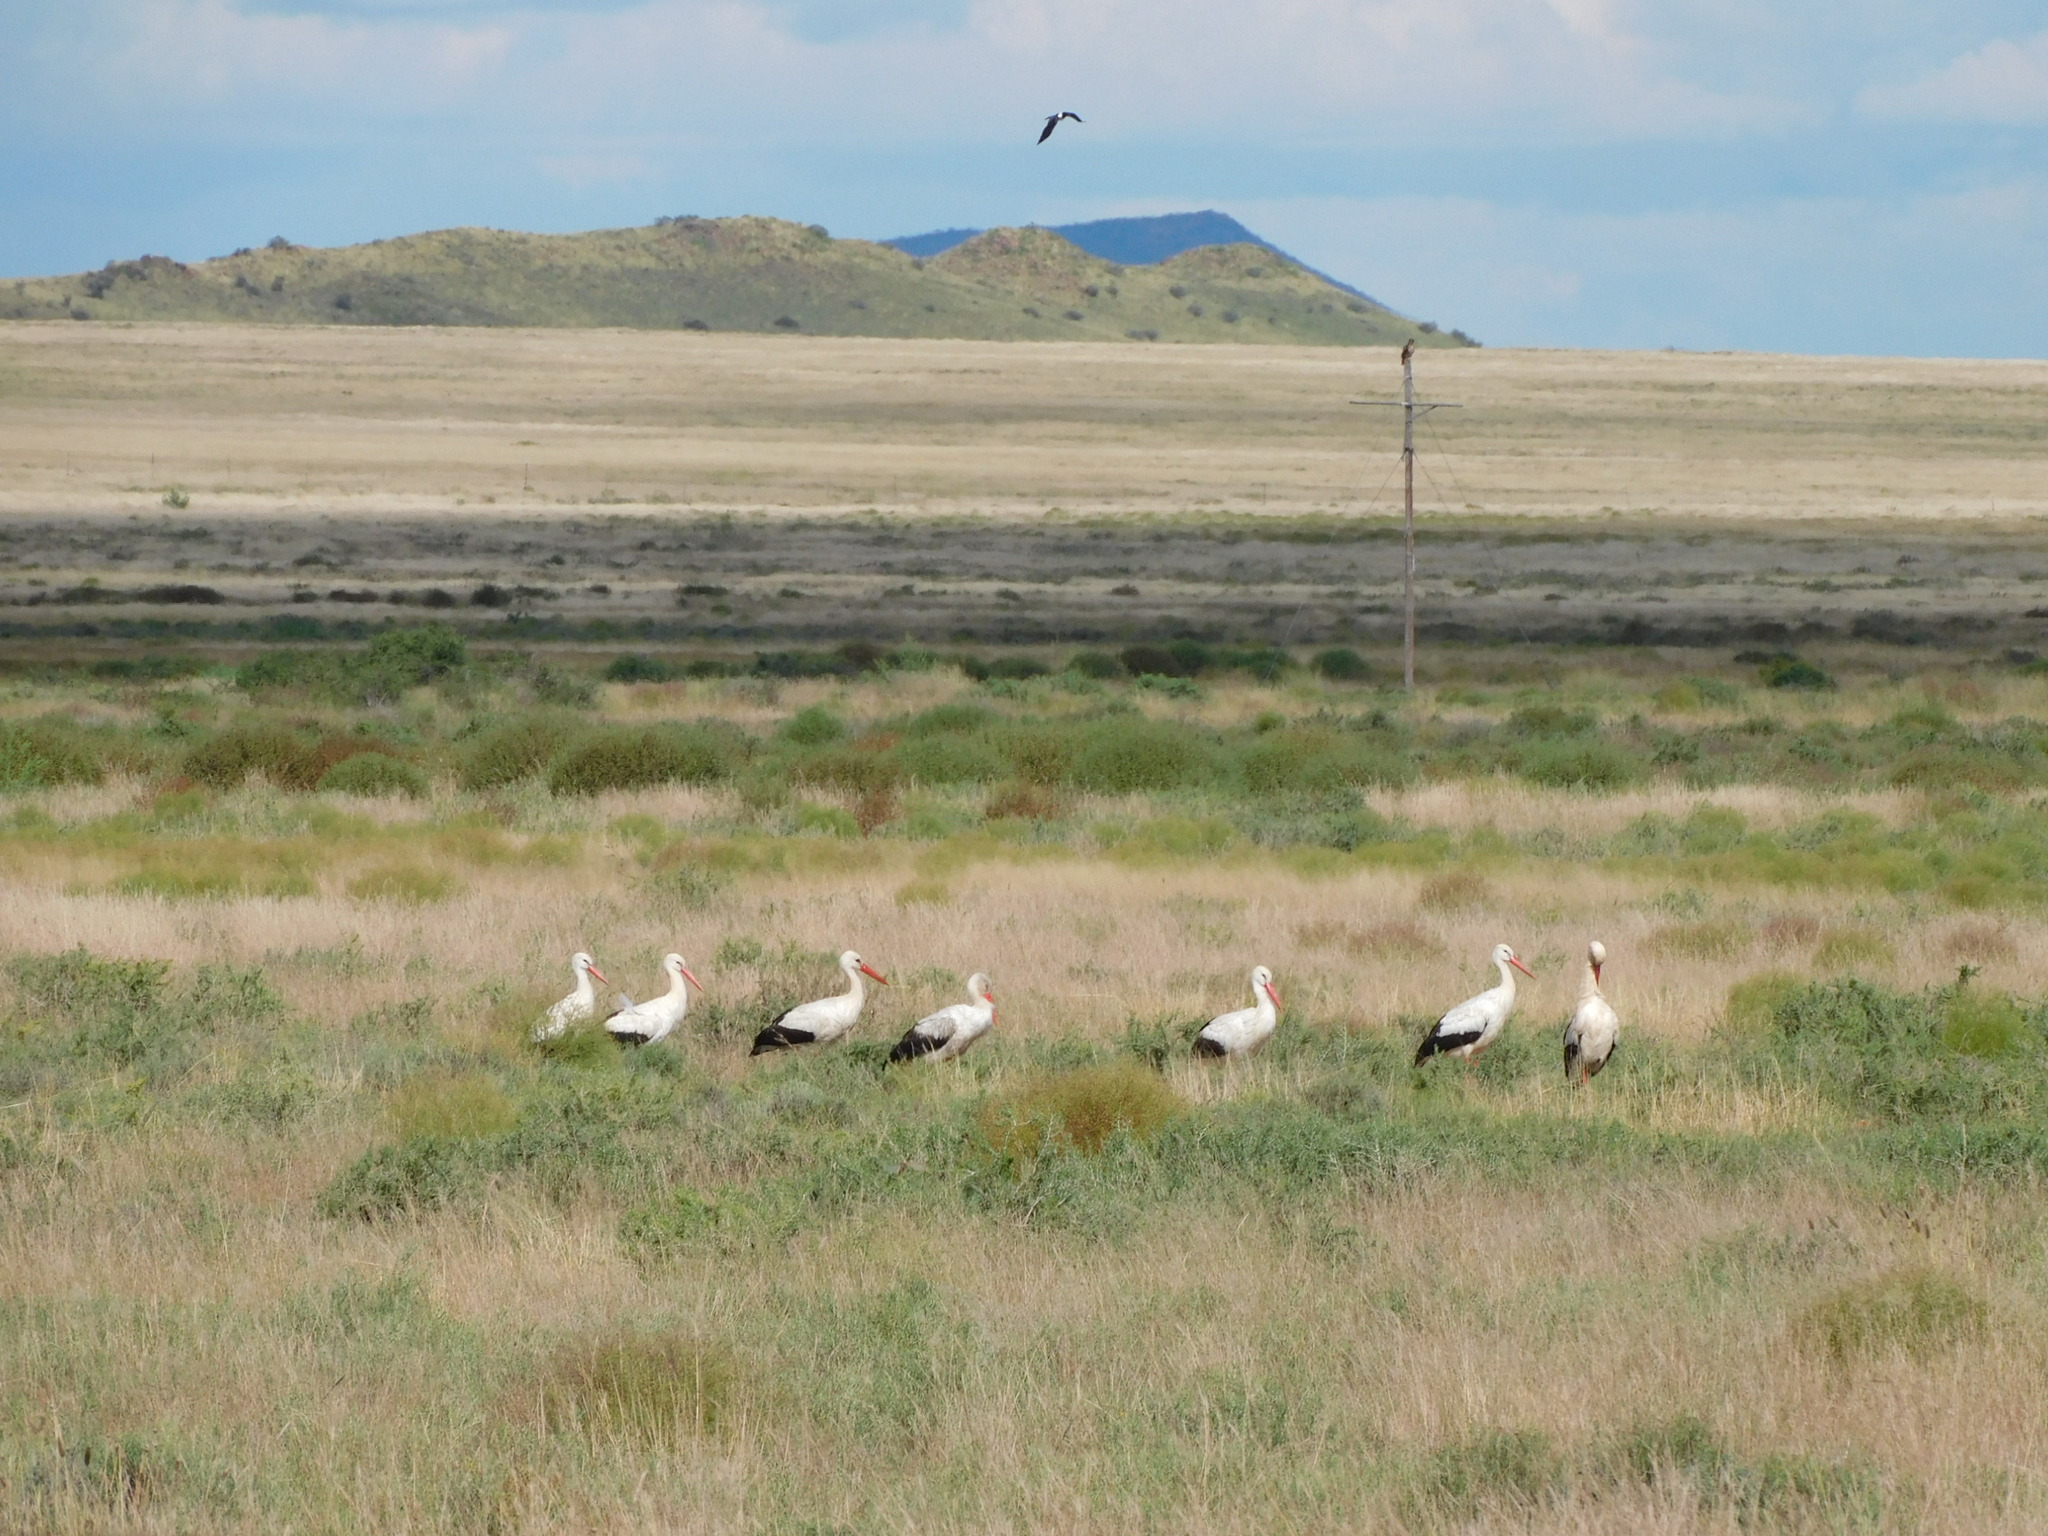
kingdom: Animalia
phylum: Chordata
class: Aves
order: Ciconiiformes
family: Ciconiidae
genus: Ciconia
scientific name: Ciconia ciconia
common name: White stork
